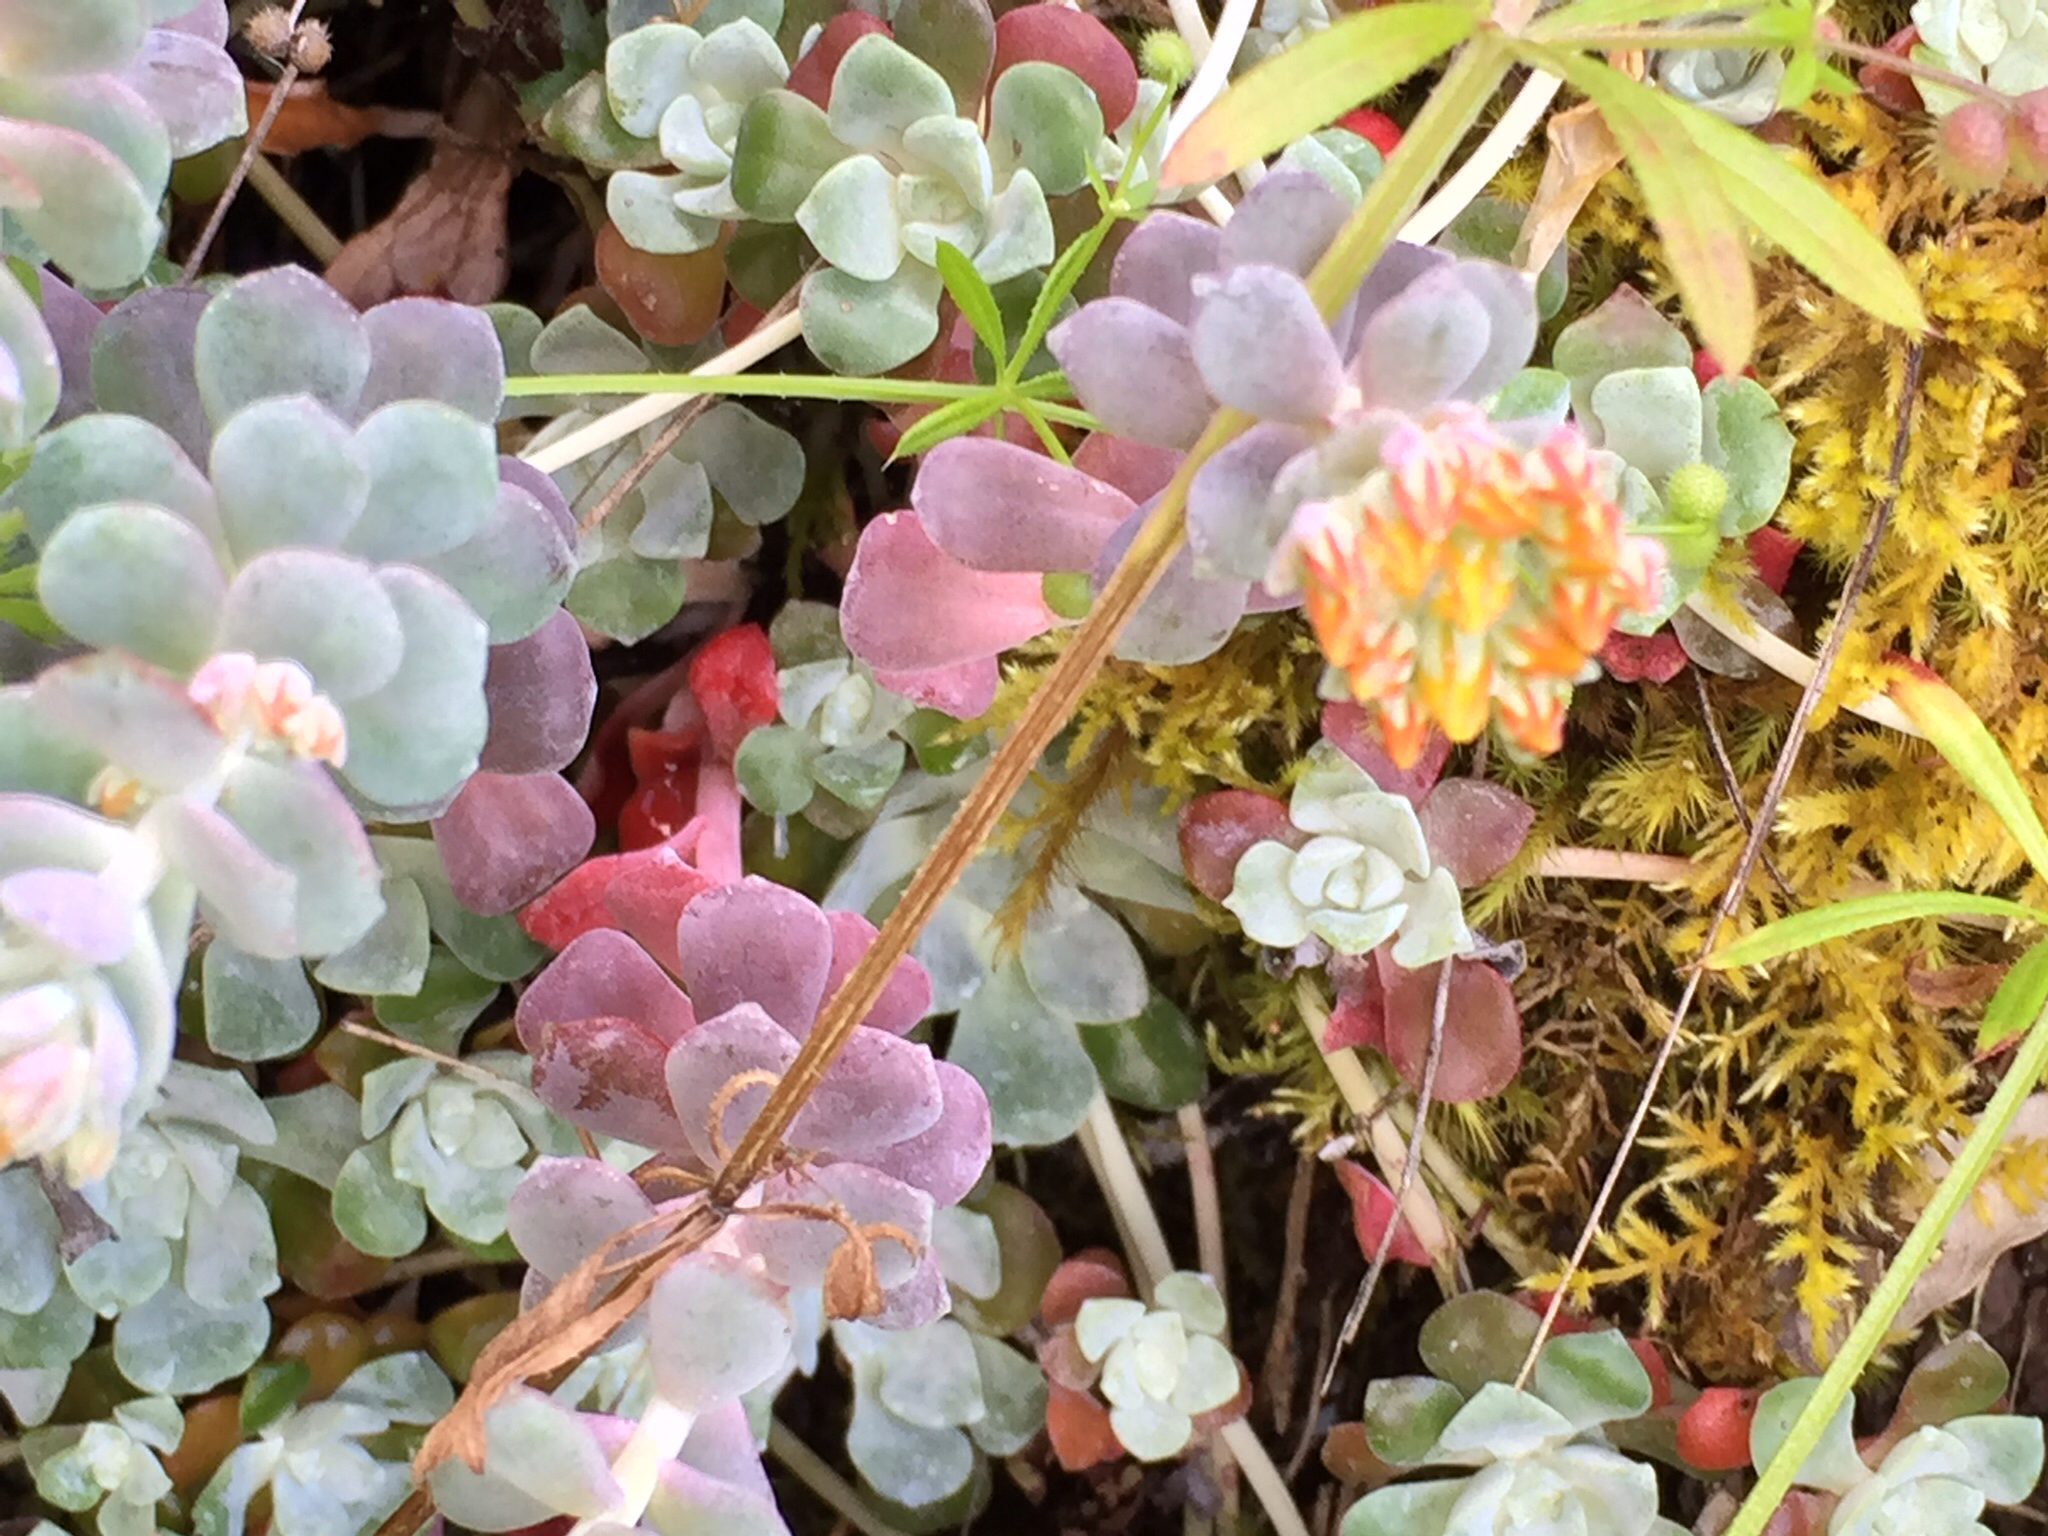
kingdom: Plantae
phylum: Tracheophyta
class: Magnoliopsida
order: Saxifragales
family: Crassulaceae
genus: Sedum
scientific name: Sedum spathulifolium
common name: Colorado stonecrop
